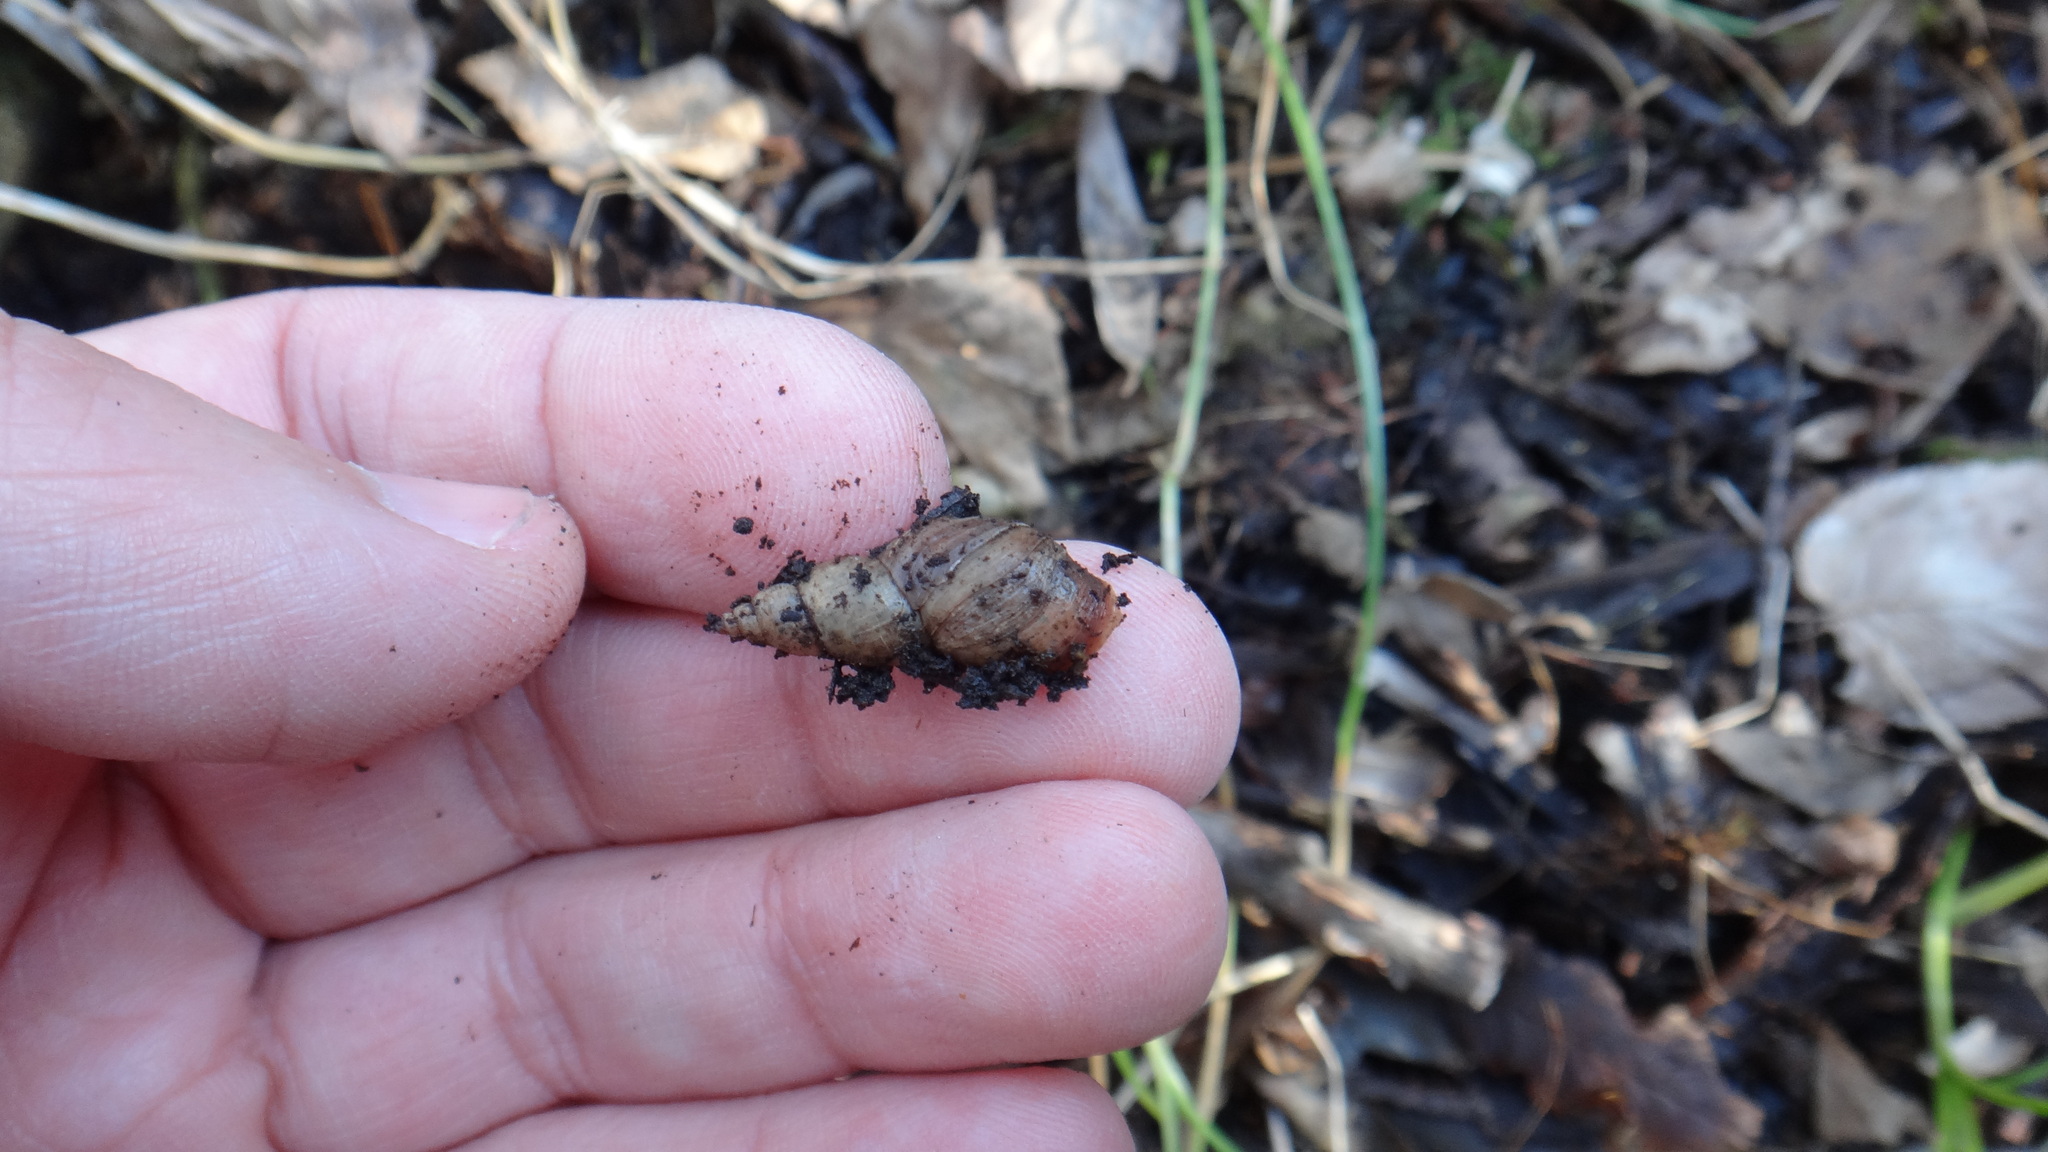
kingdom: Animalia
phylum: Mollusca
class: Gastropoda
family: Lymnaeidae
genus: Stagnicola
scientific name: Stagnicola palustris
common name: Common european pondsnail
